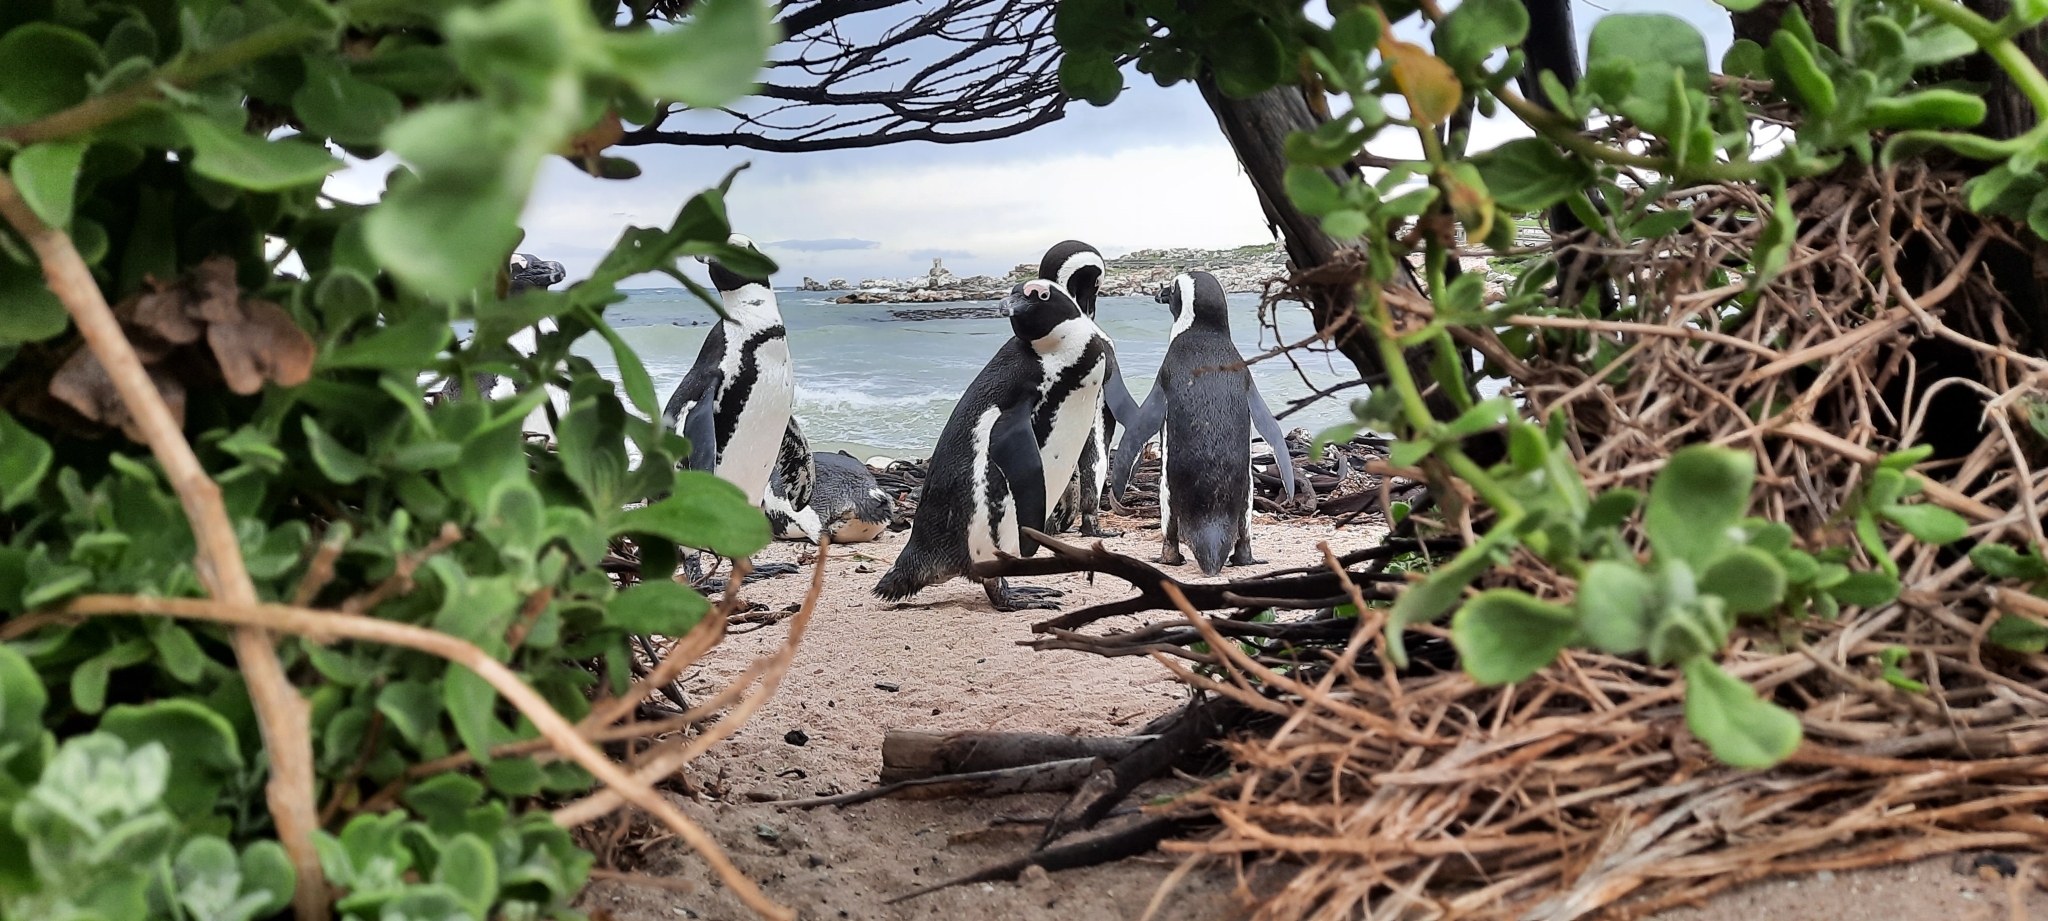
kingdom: Animalia
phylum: Chordata
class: Aves
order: Sphenisciformes
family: Spheniscidae
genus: Spheniscus
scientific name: Spheniscus demersus
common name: African penguin
